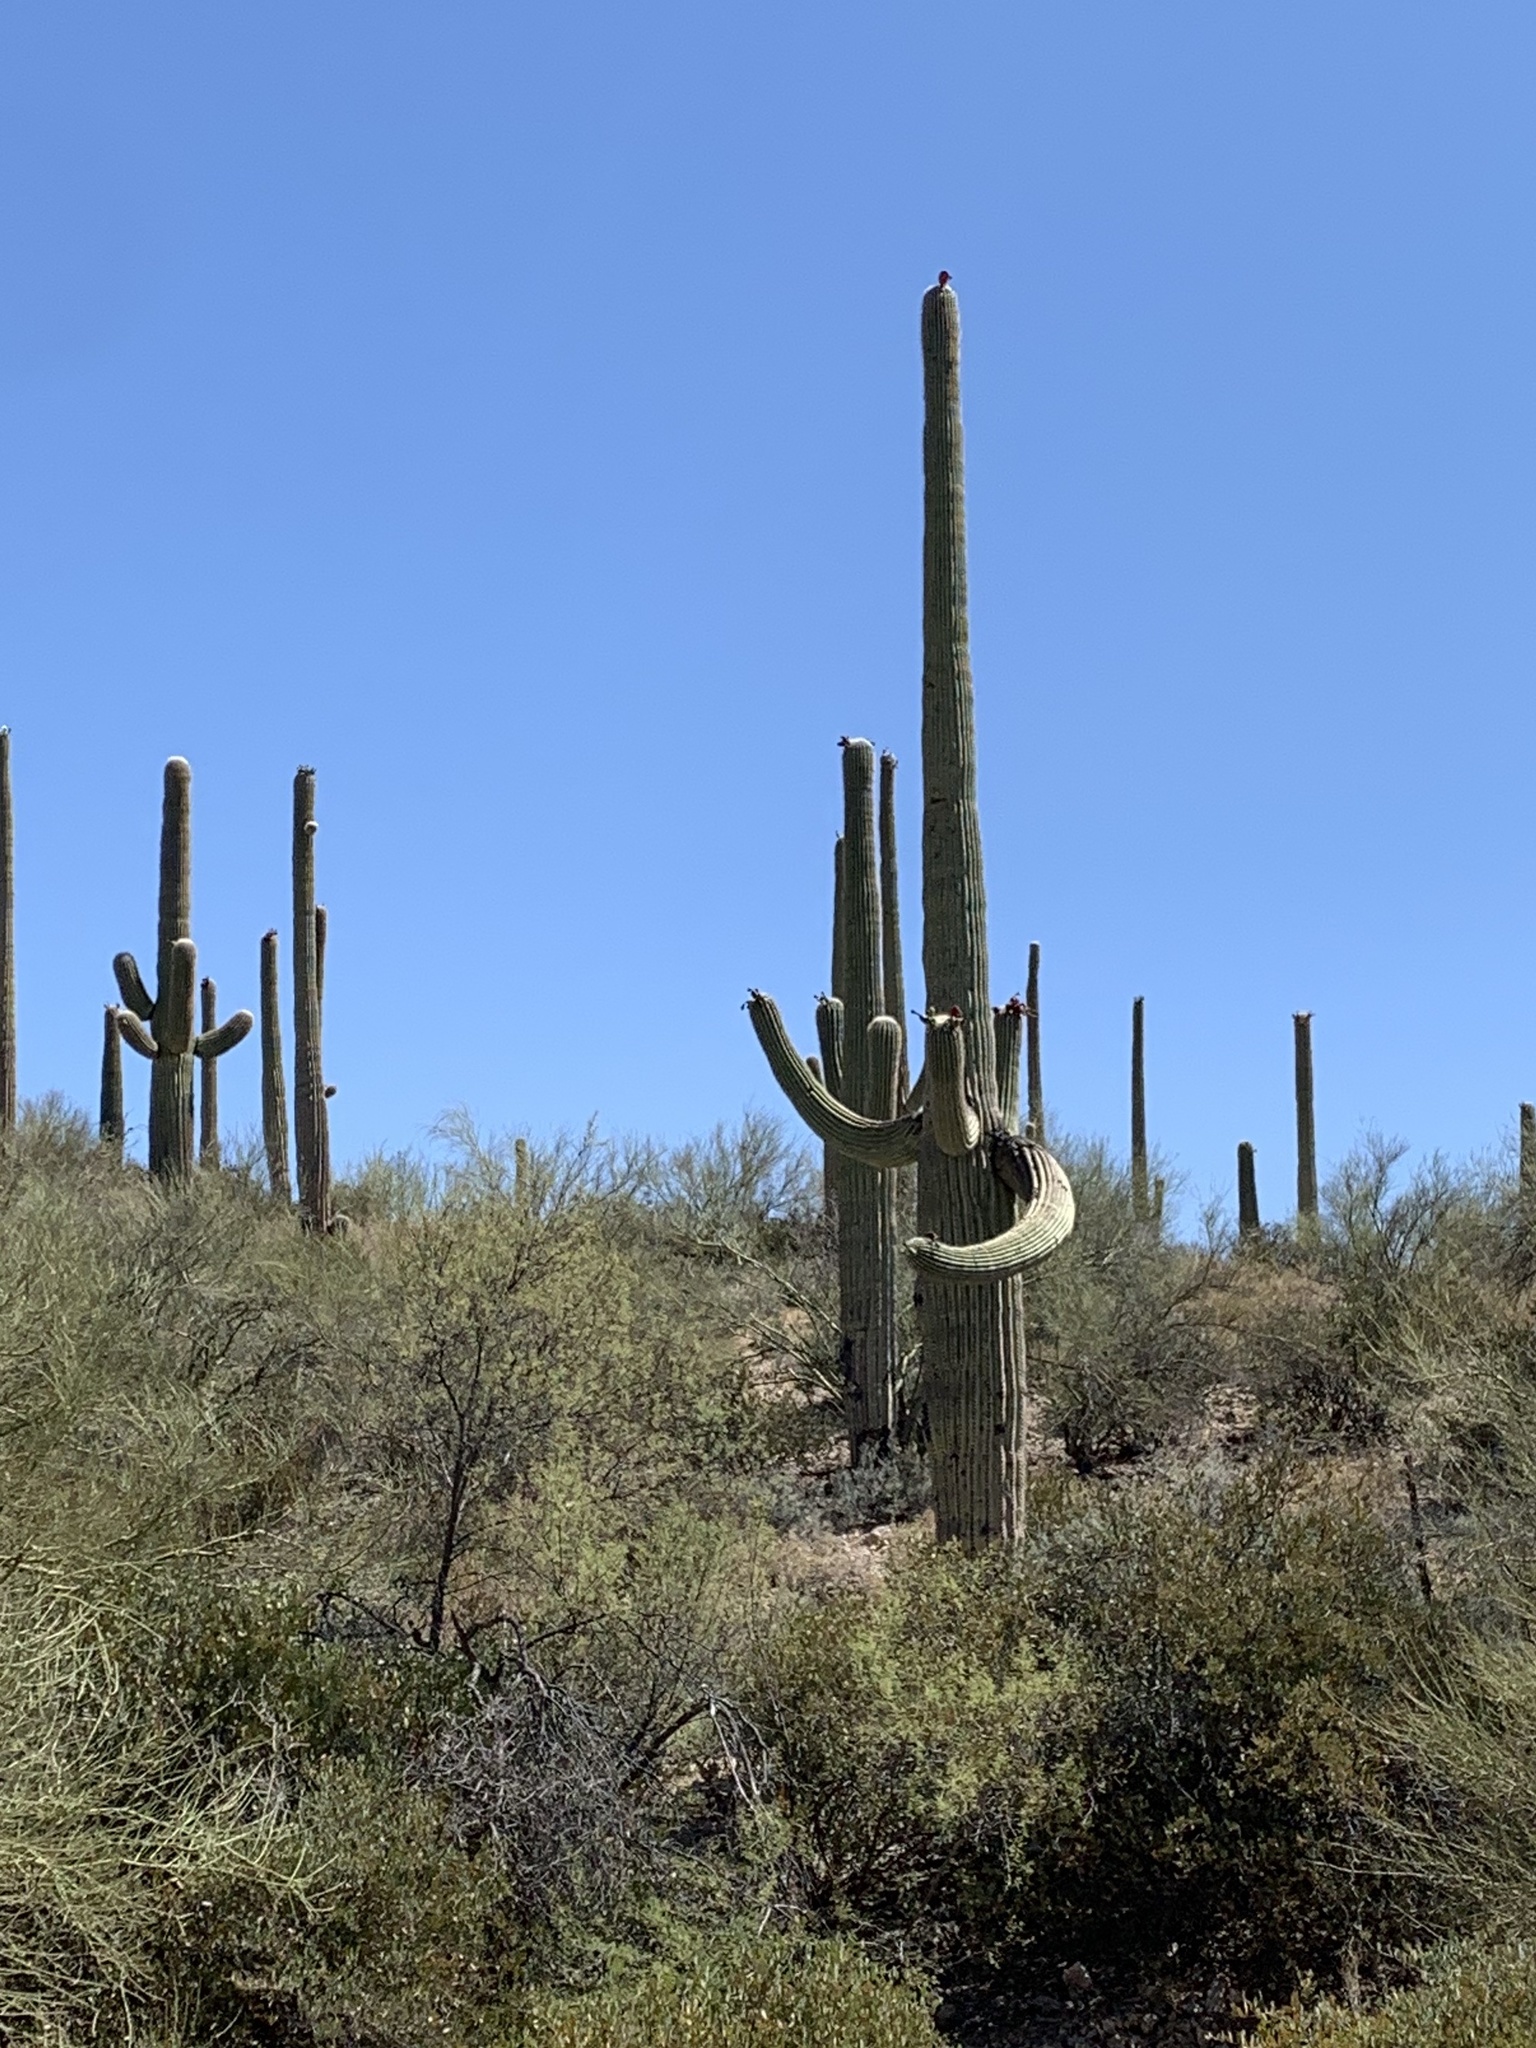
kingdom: Plantae
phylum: Tracheophyta
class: Magnoliopsida
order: Caryophyllales
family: Cactaceae
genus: Carnegiea
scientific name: Carnegiea gigantea
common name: Saguaro
